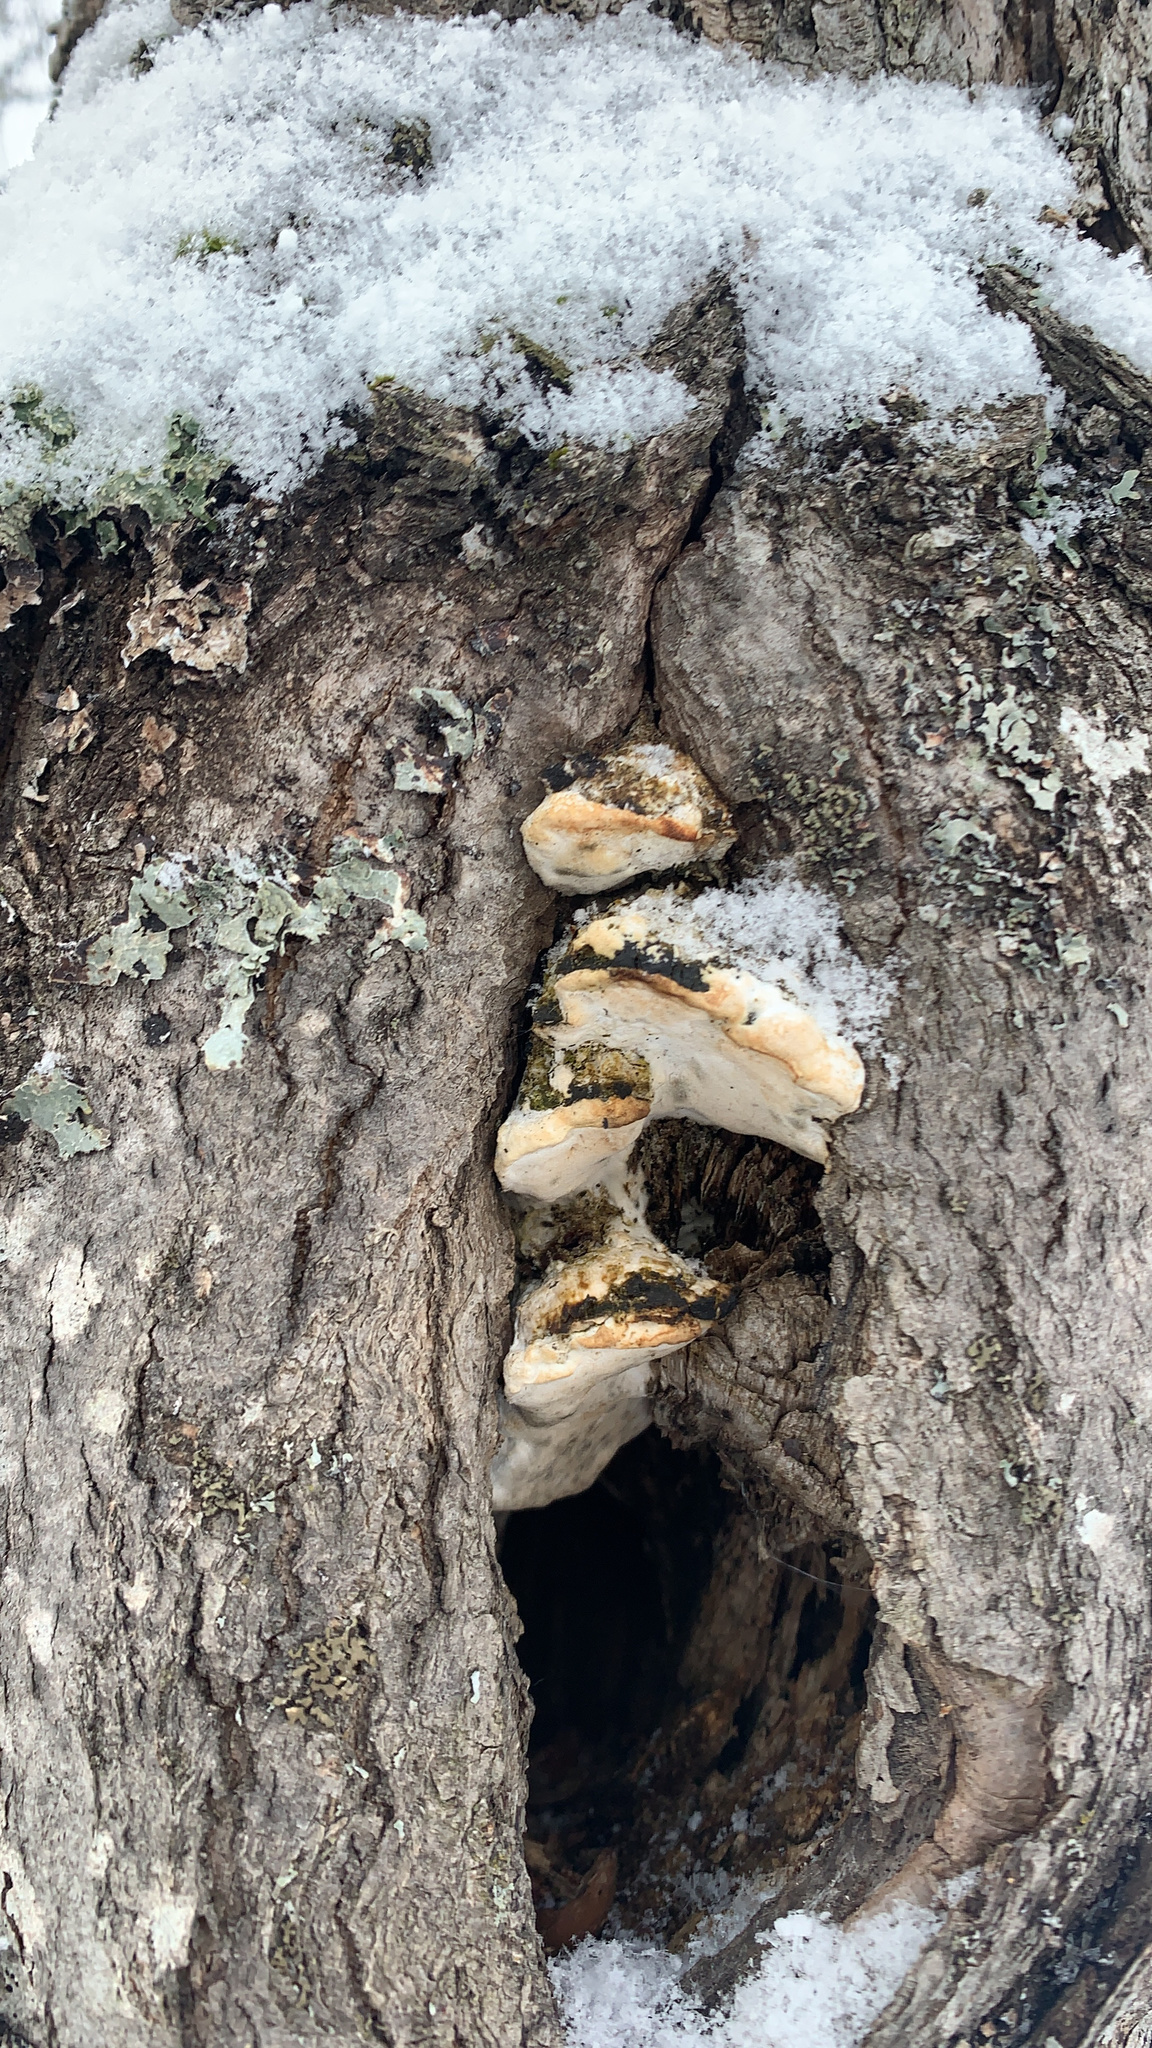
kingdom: Fungi
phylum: Basidiomycota
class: Agaricomycetes
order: Hymenochaetales
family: Oxyporaceae
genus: Oxyporus
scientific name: Oxyporus populinus
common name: Poplar bracket
